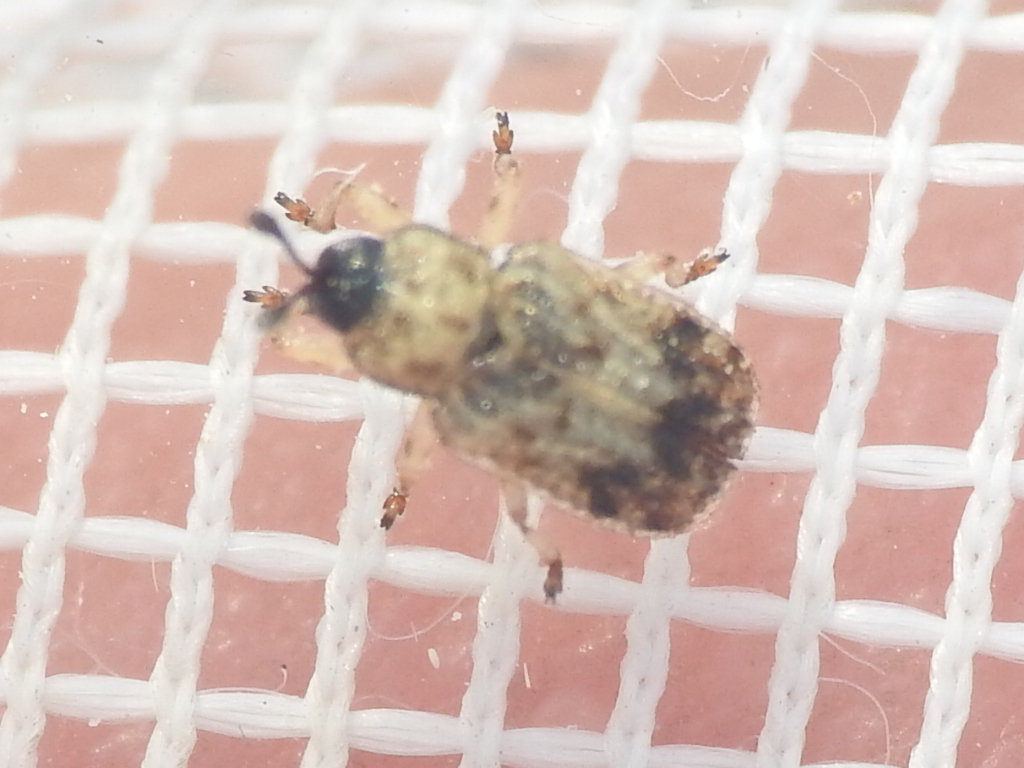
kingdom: Animalia
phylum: Arthropoda
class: Insecta
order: Coleoptera
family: Chrysomelidae
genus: Brachycoryna
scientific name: Brachycoryna pumila
